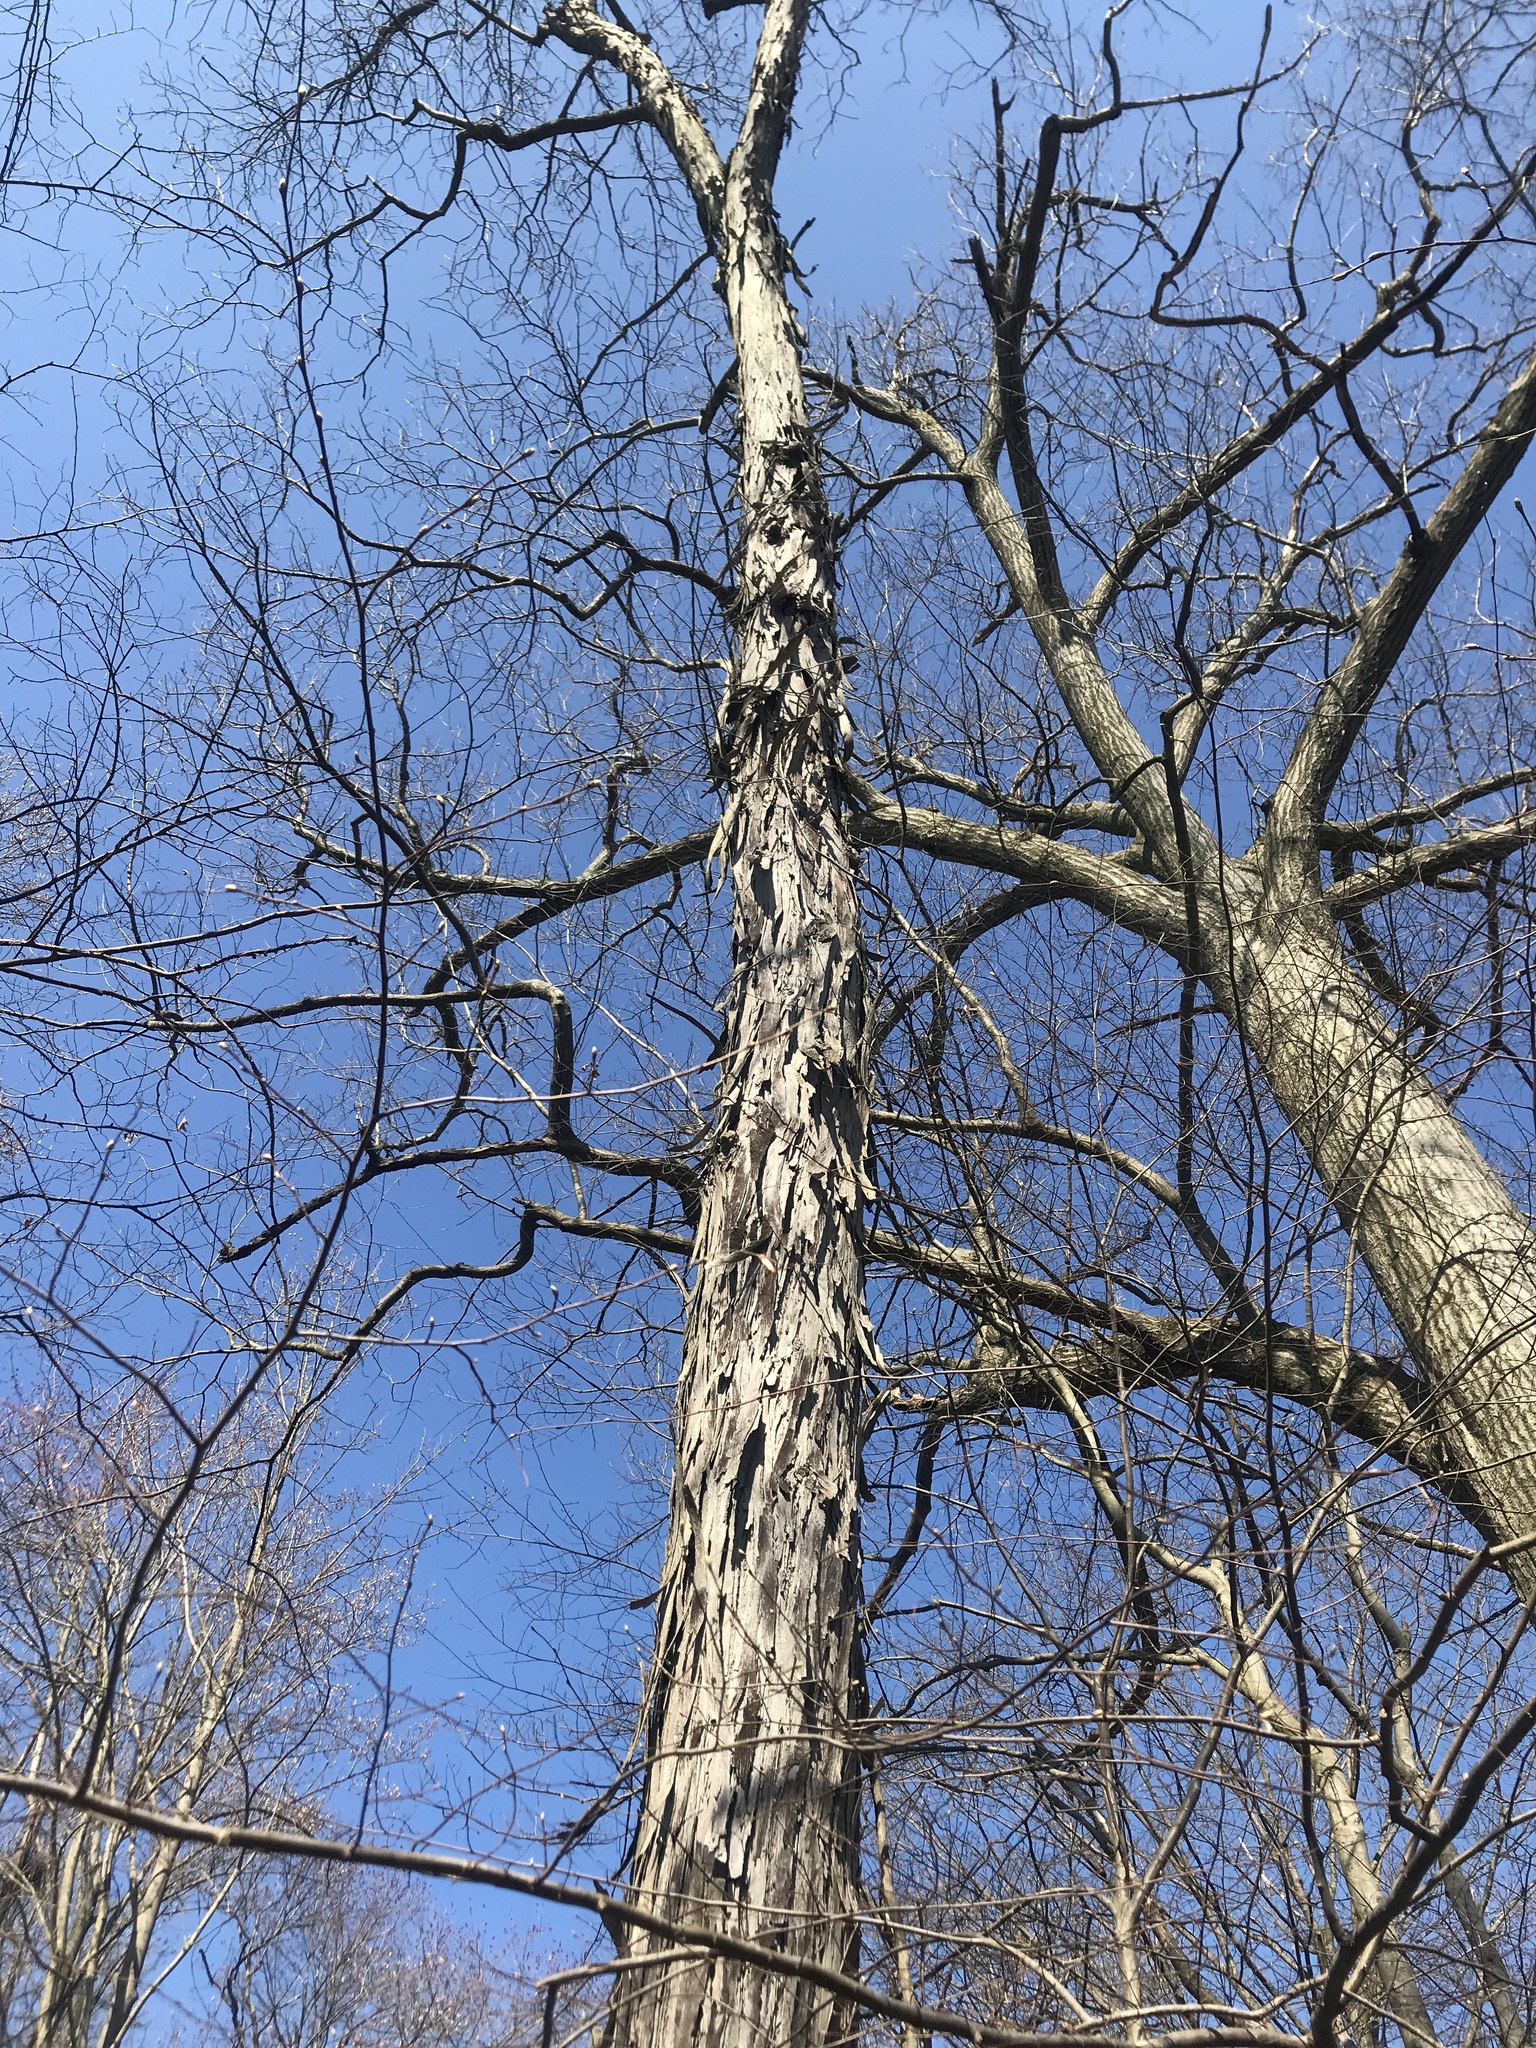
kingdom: Plantae
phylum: Tracheophyta
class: Magnoliopsida
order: Fagales
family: Juglandaceae
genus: Carya
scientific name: Carya ovata
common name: Shagbark hickory
